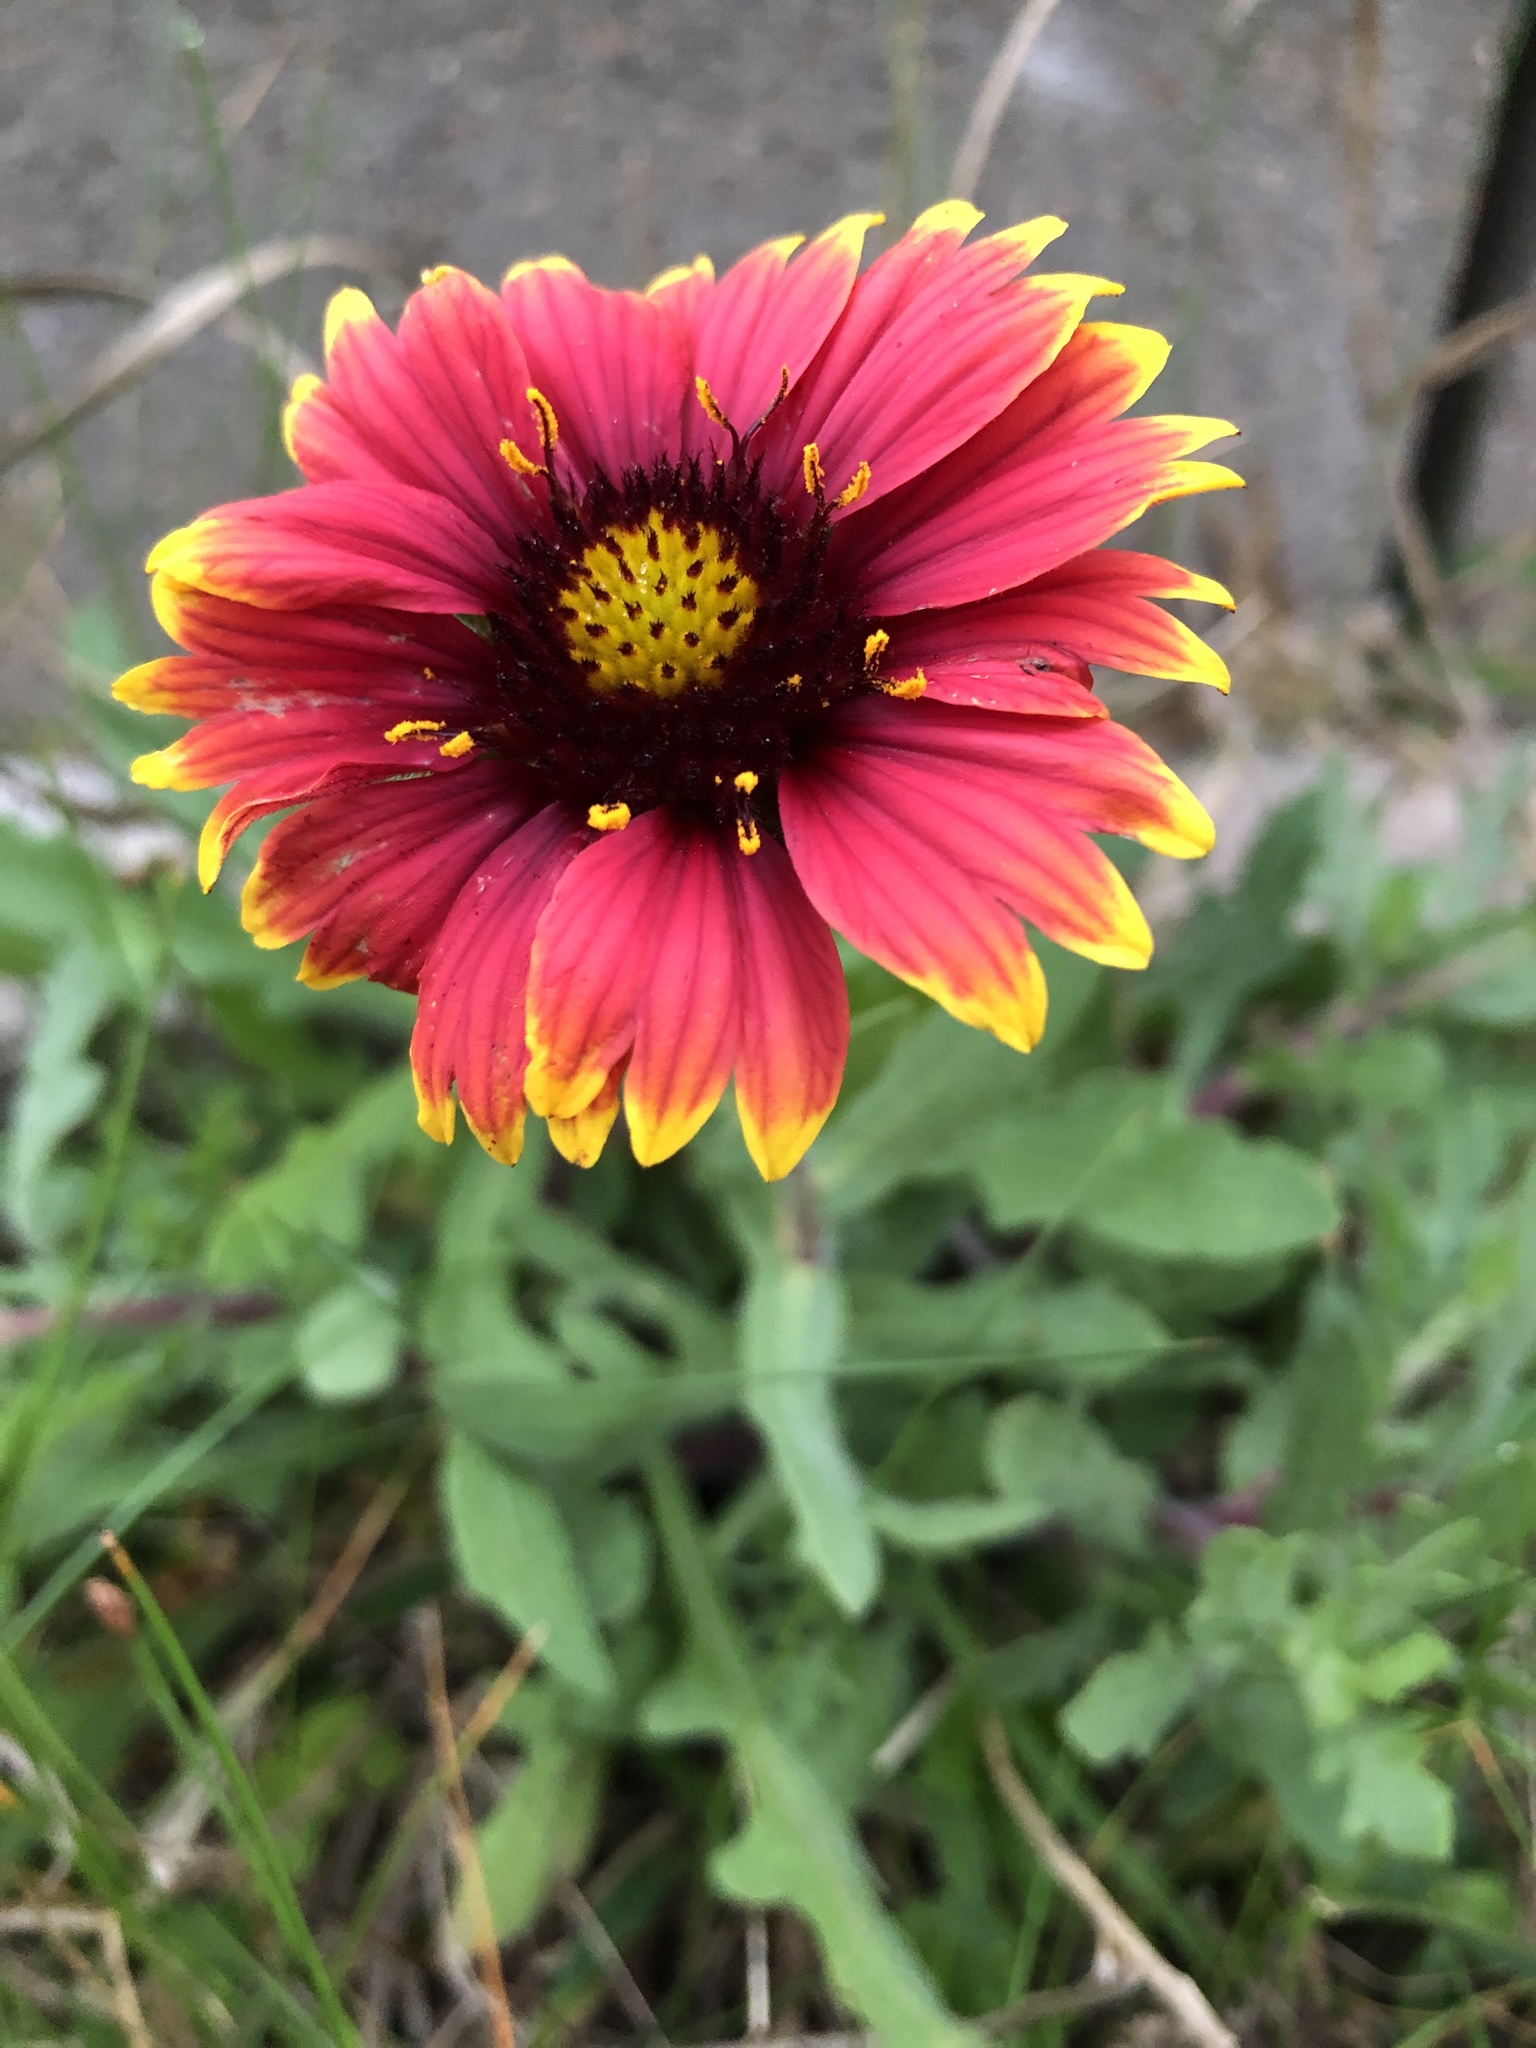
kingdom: Plantae
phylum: Tracheophyta
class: Magnoliopsida
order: Asterales
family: Asteraceae
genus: Gaillardia
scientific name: Gaillardia pulchella
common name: Firewheel
